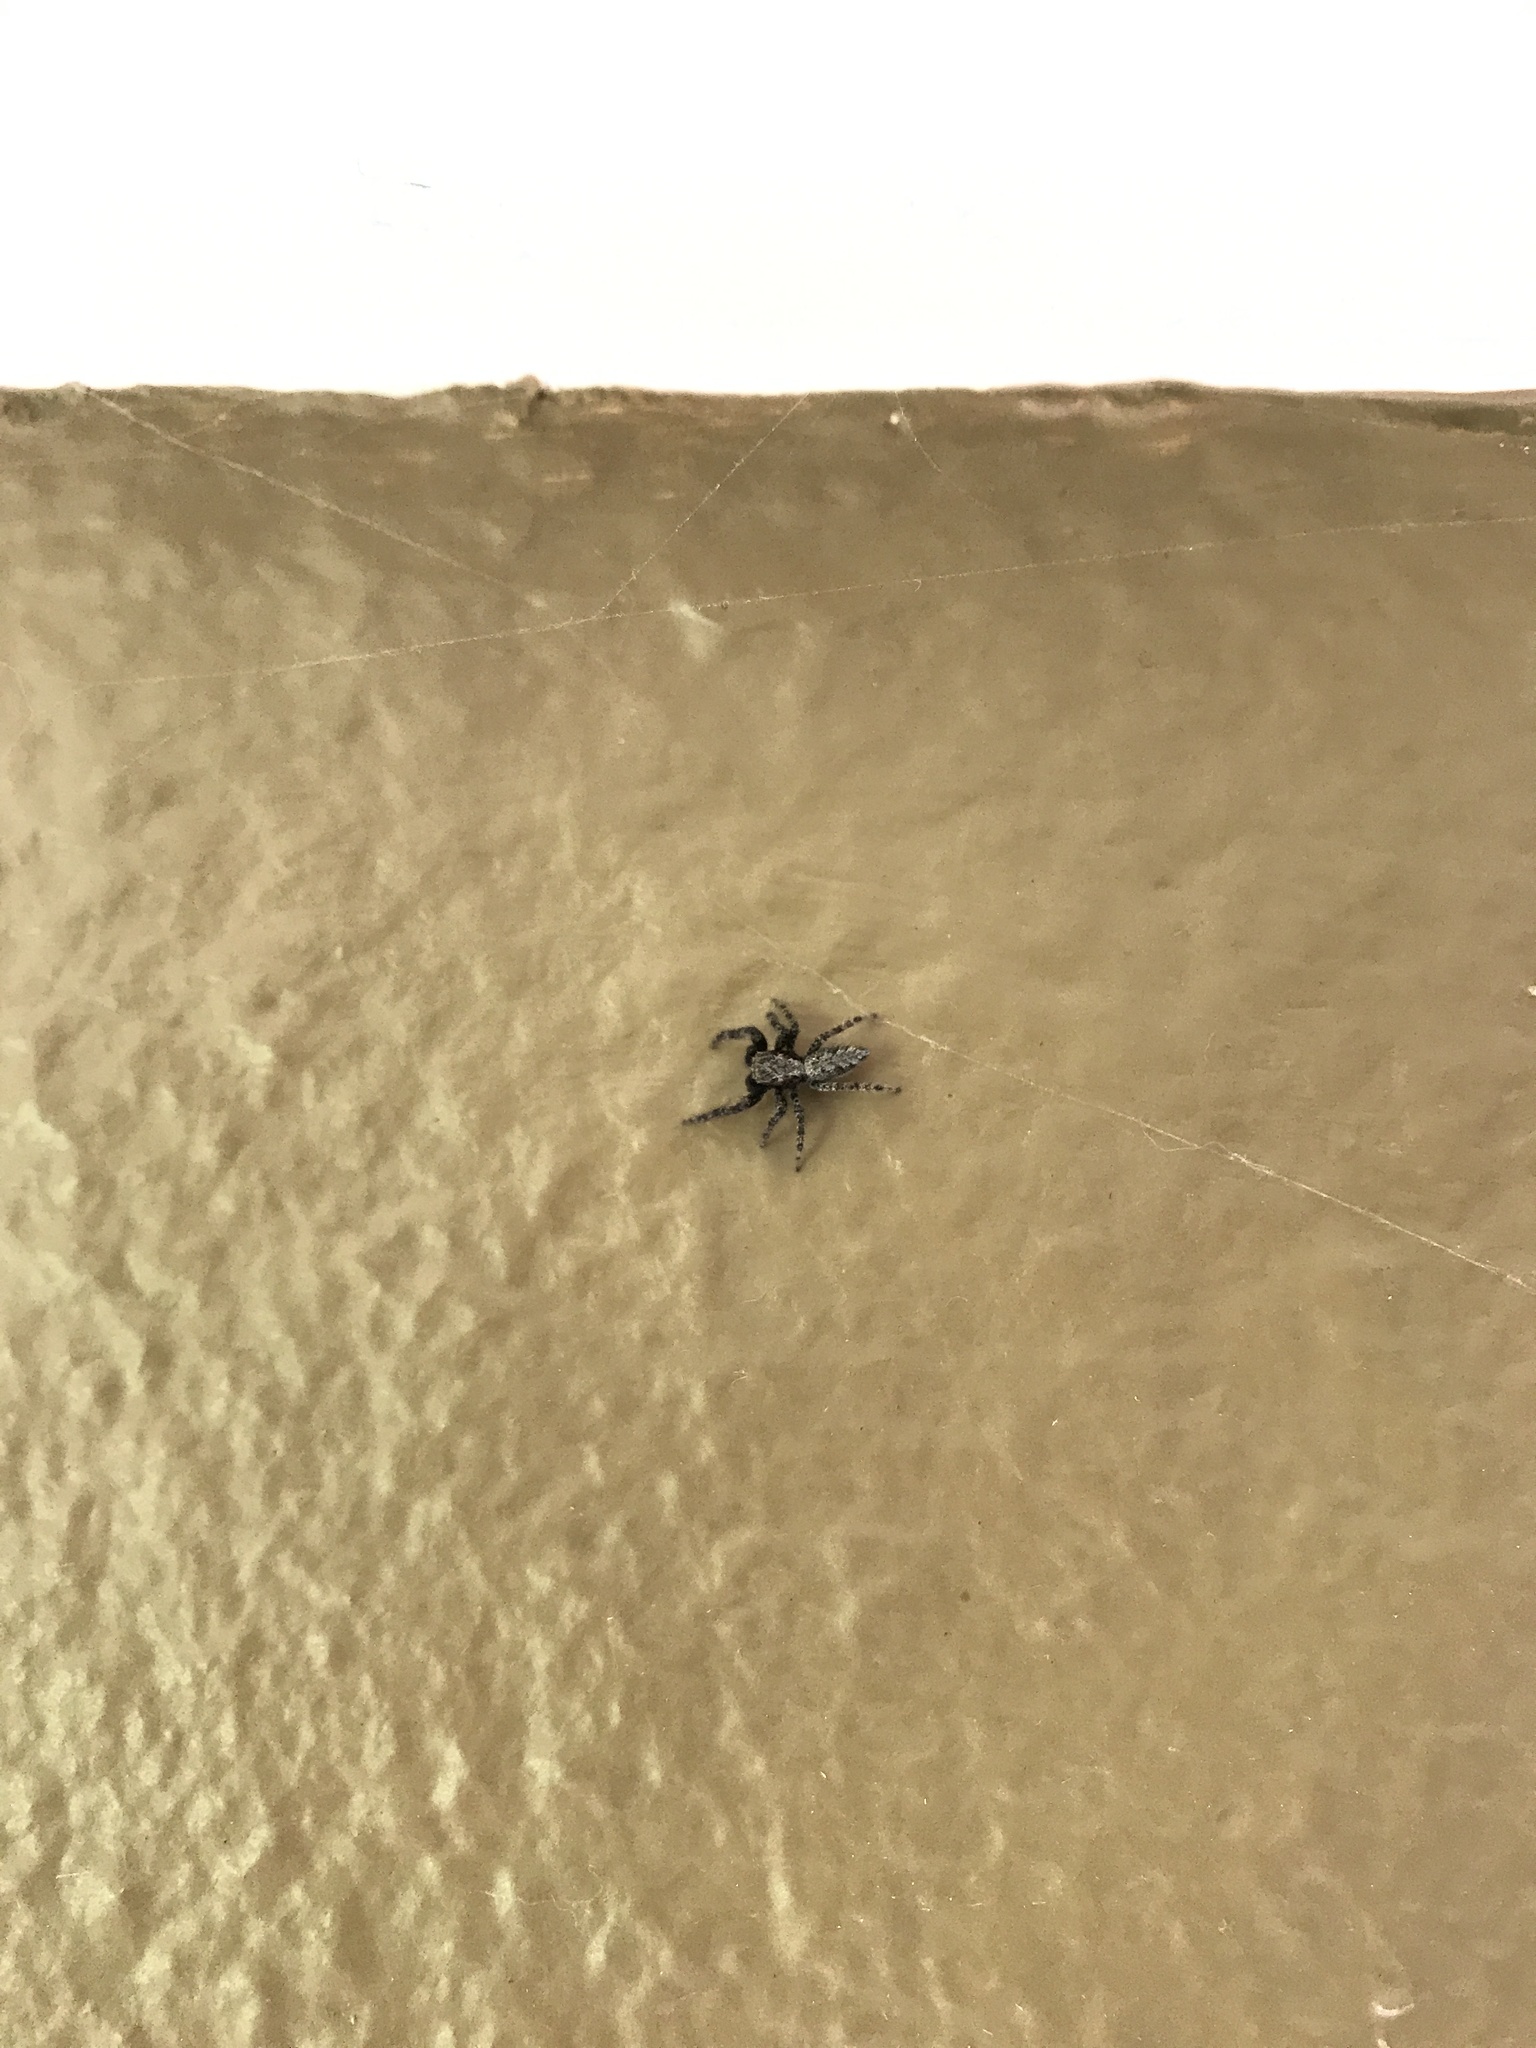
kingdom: Animalia
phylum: Arthropoda
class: Arachnida
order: Araneae
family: Salticidae
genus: Platycryptus
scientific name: Platycryptus californicus
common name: Jumping spiders
